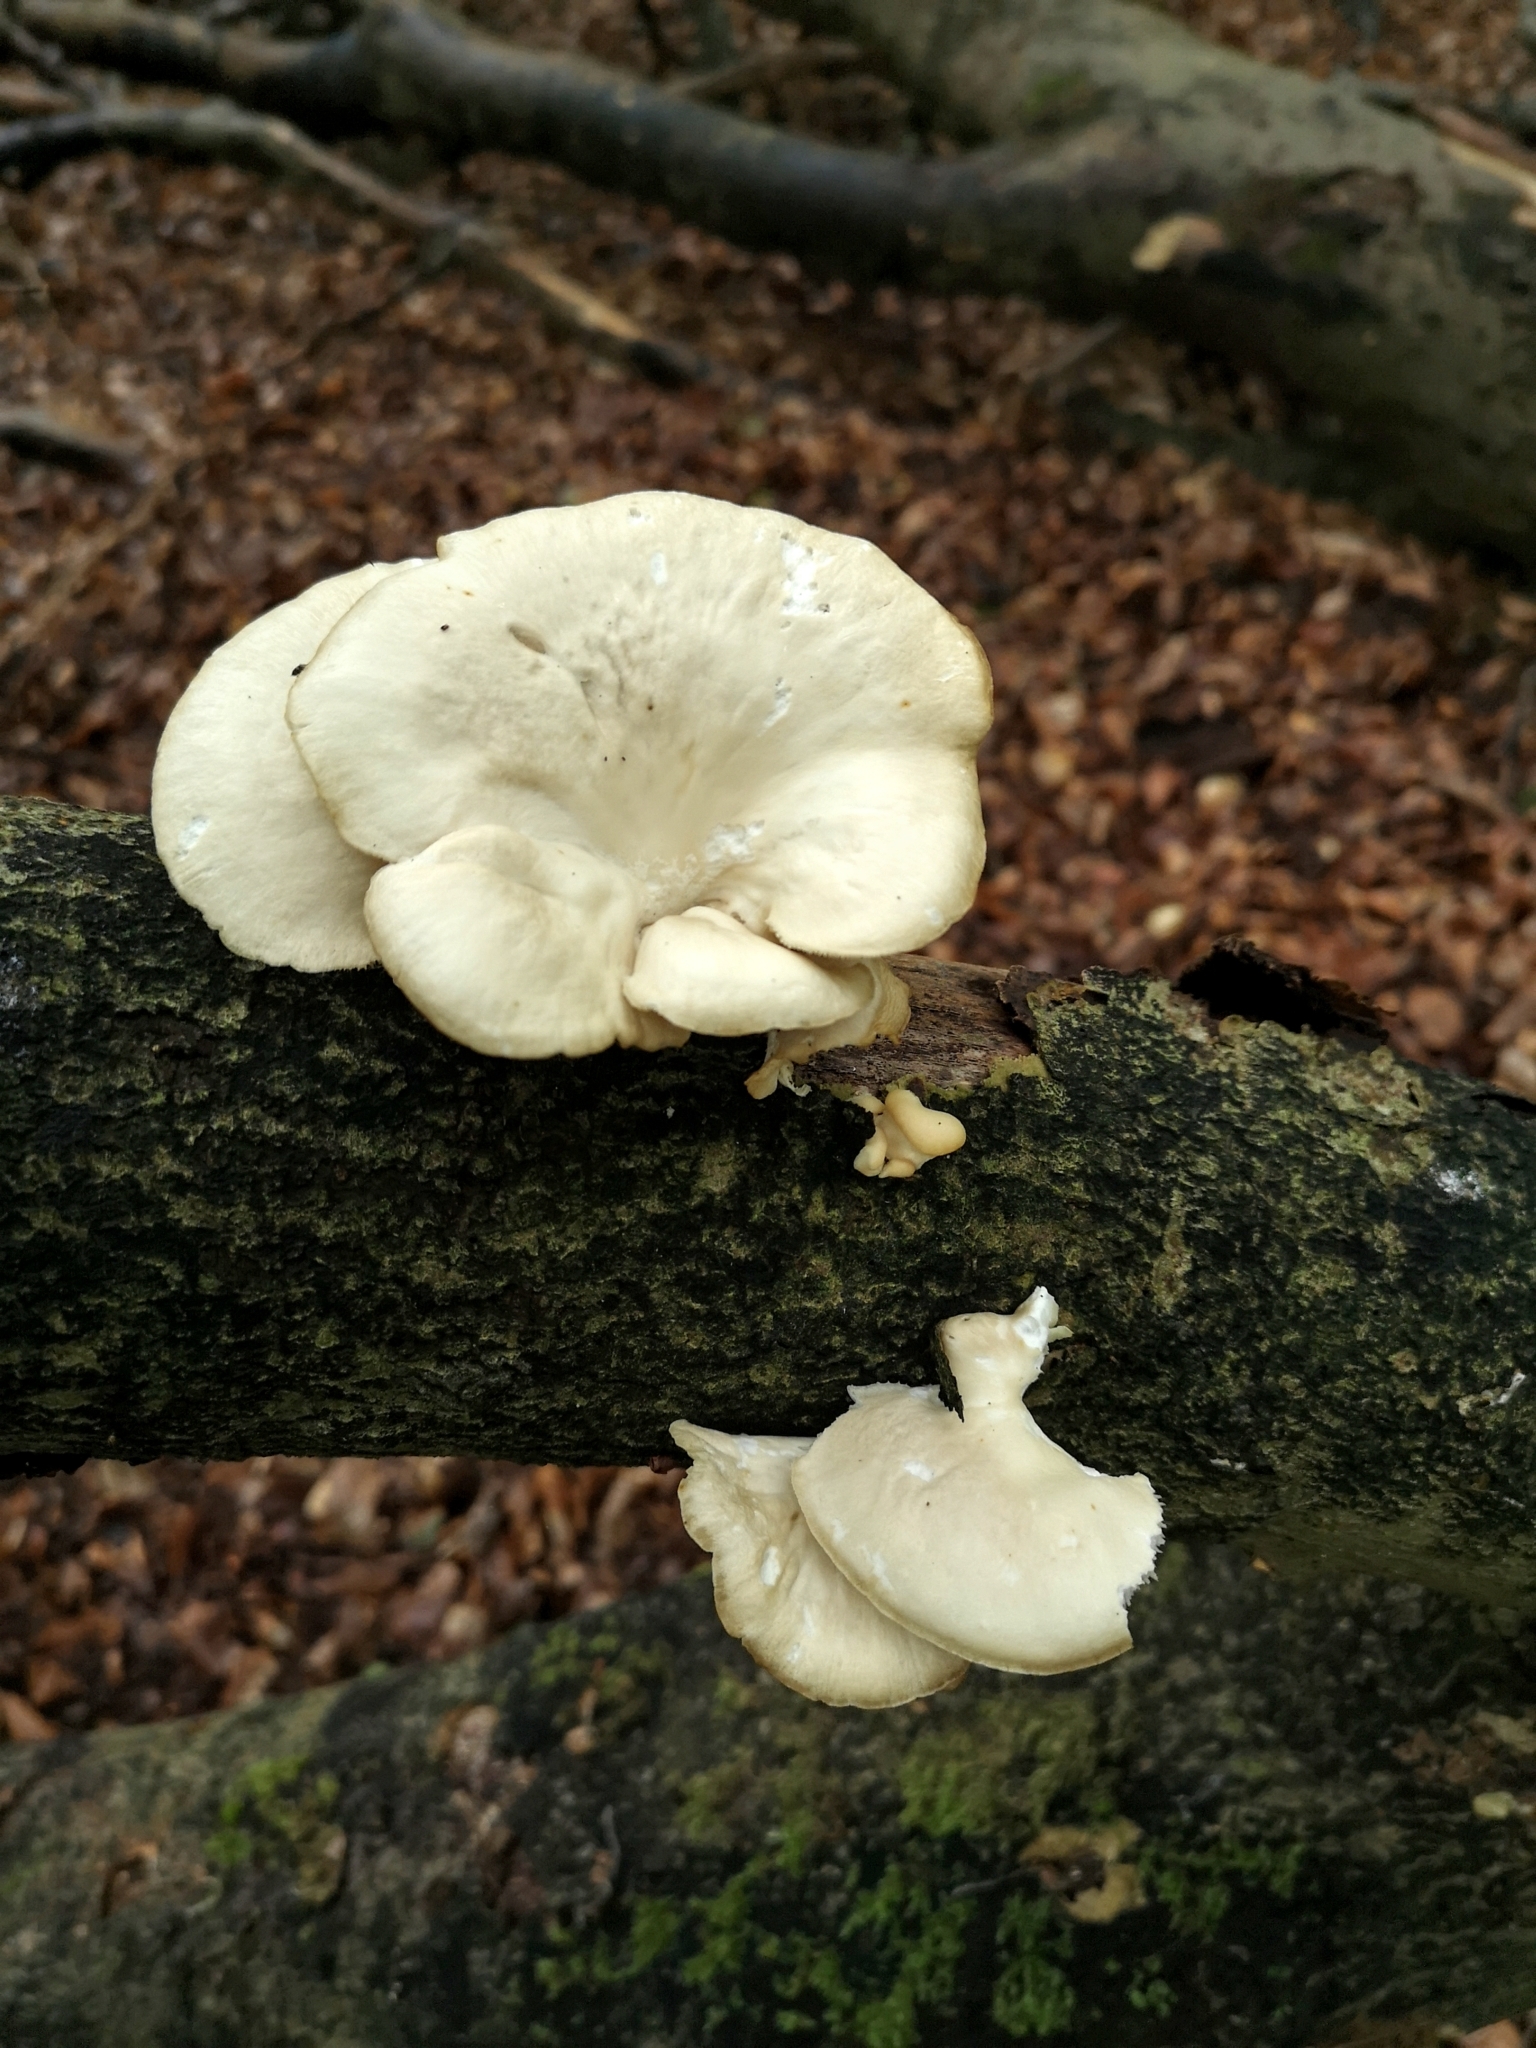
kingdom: Fungi
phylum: Basidiomycota
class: Agaricomycetes
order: Agaricales
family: Pleurotaceae
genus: Pleurotus
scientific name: Pleurotus pulmonarius
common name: Pale oyster
